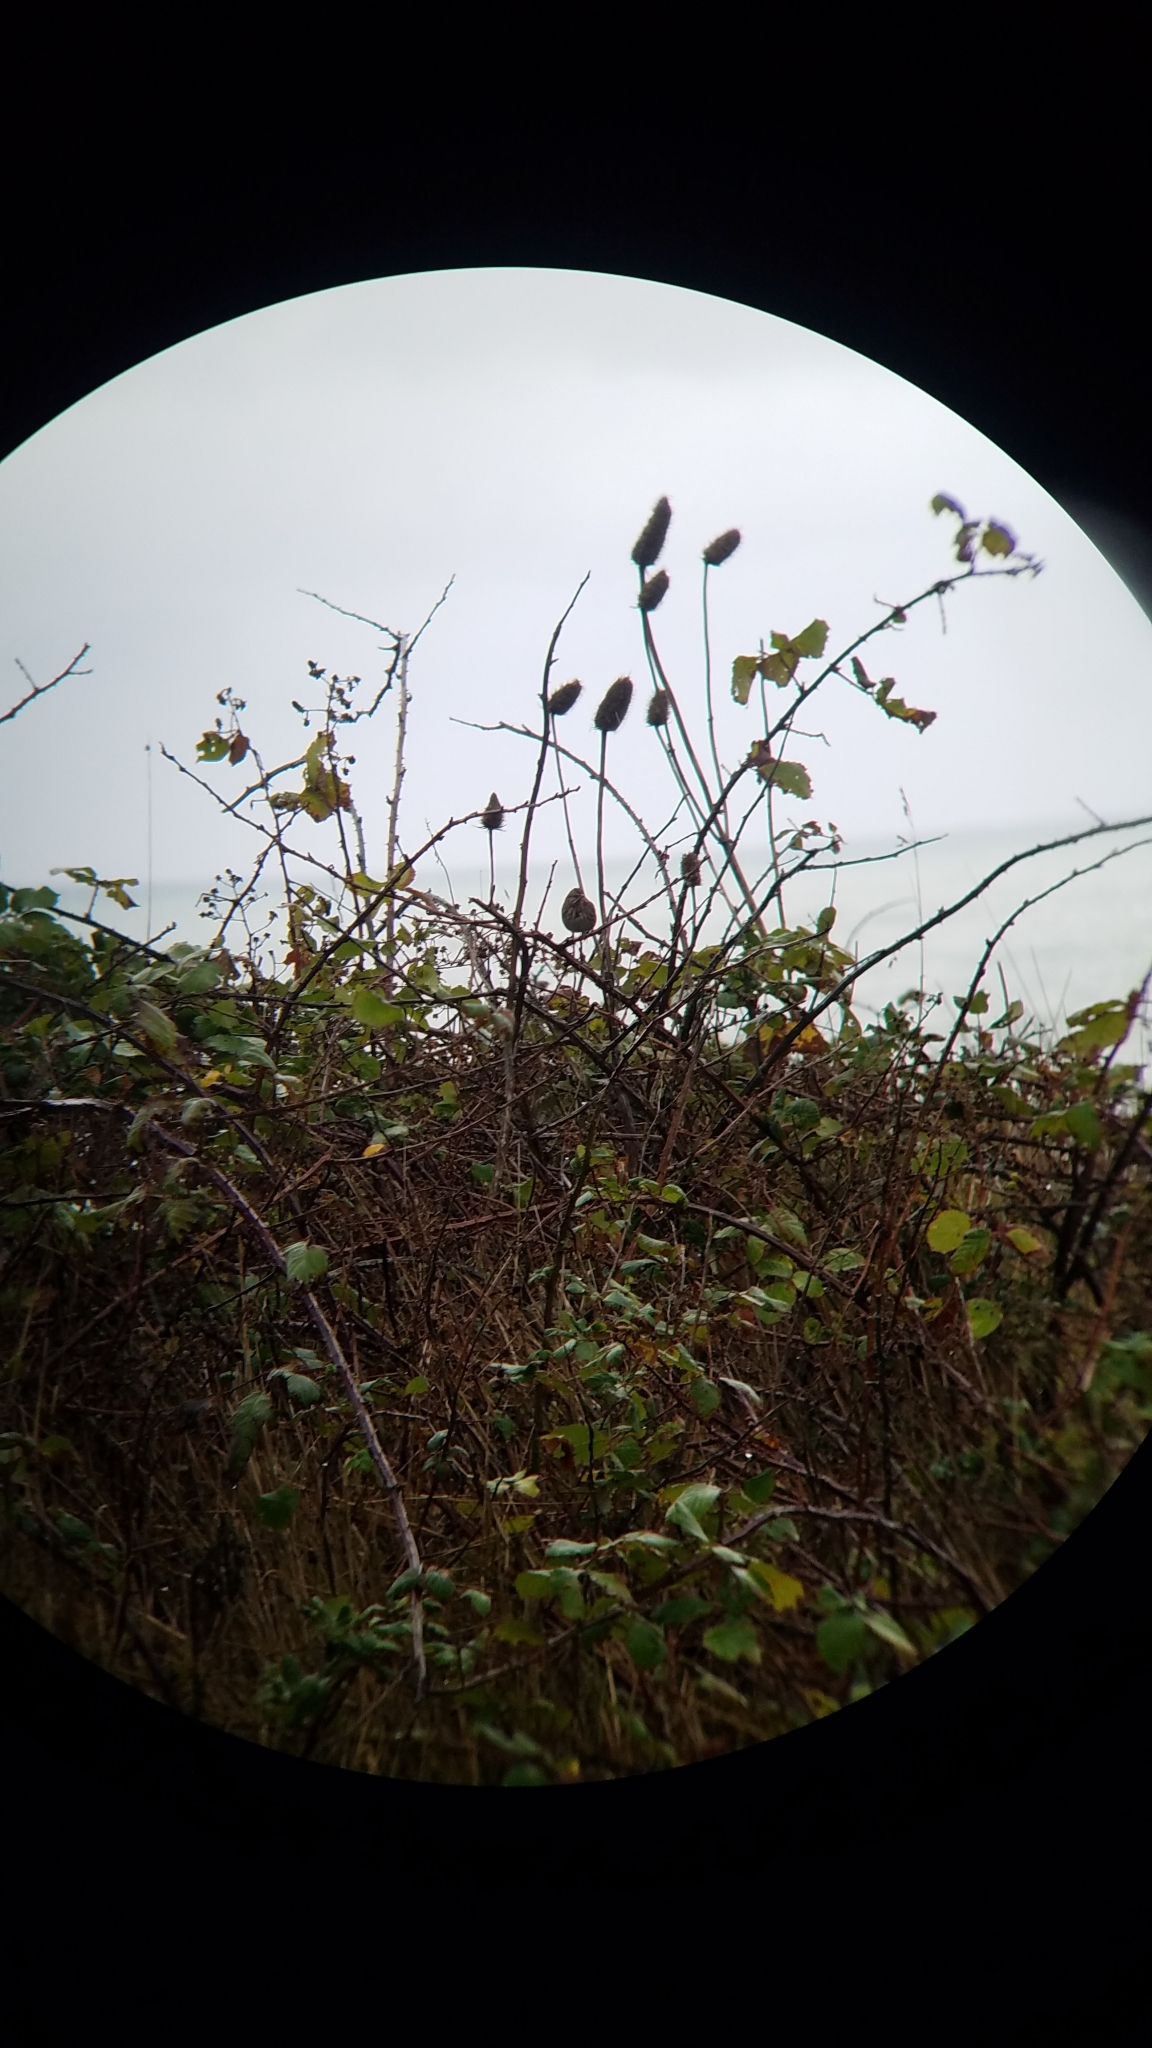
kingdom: Animalia
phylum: Chordata
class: Aves
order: Passeriformes
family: Passerellidae
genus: Melospiza
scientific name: Melospiza melodia
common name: Song sparrow
